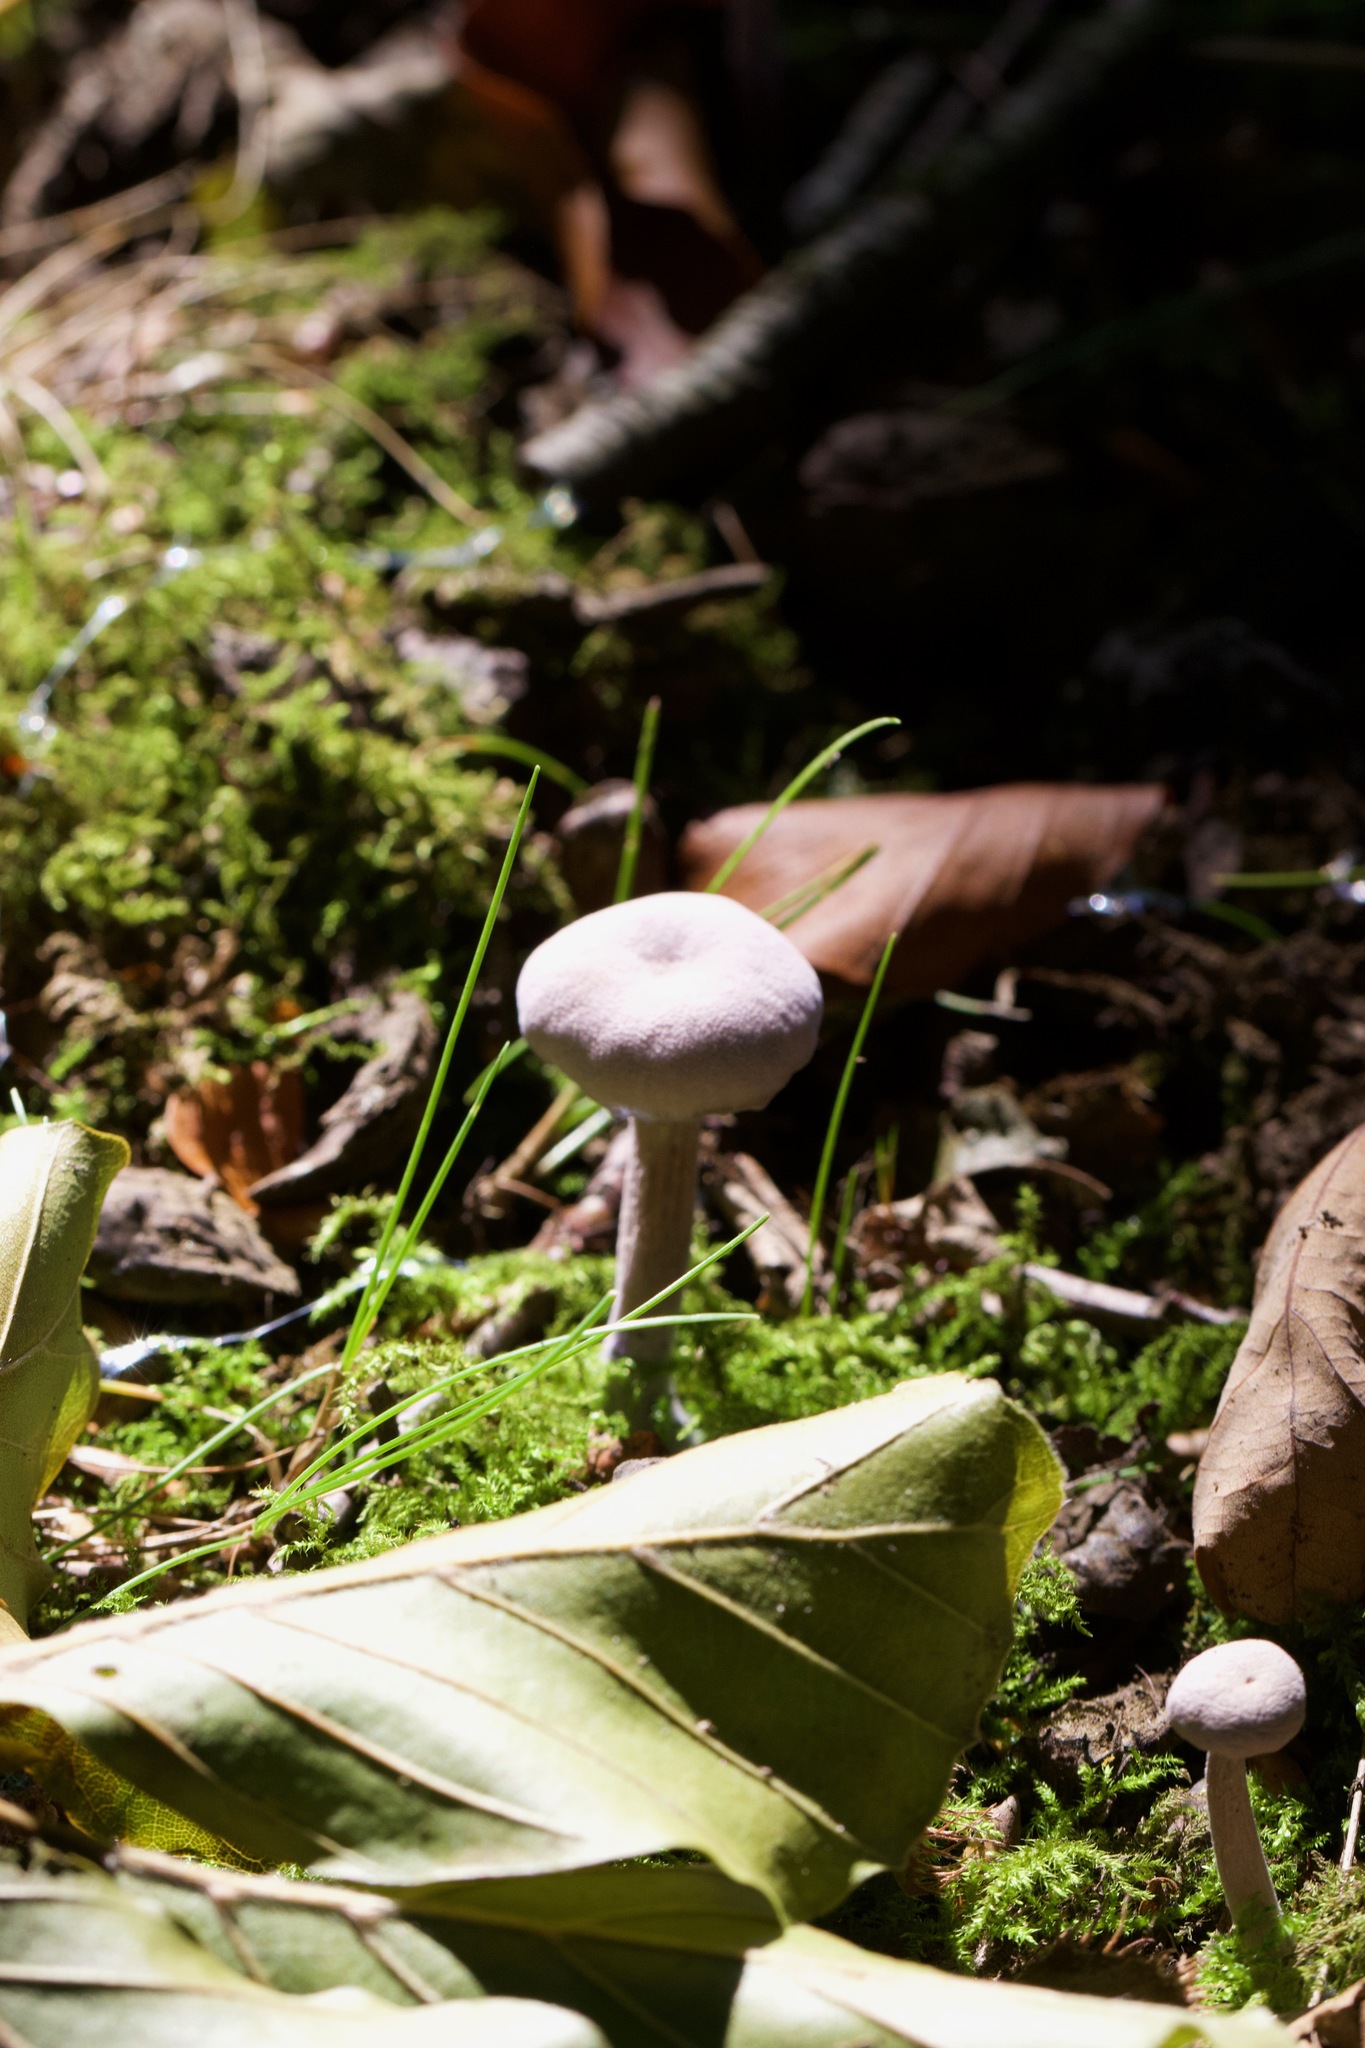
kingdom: Fungi
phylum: Basidiomycota
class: Agaricomycetes
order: Agaricales
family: Hydnangiaceae
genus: Laccaria
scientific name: Laccaria amethystina
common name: Amethyst deceiver
